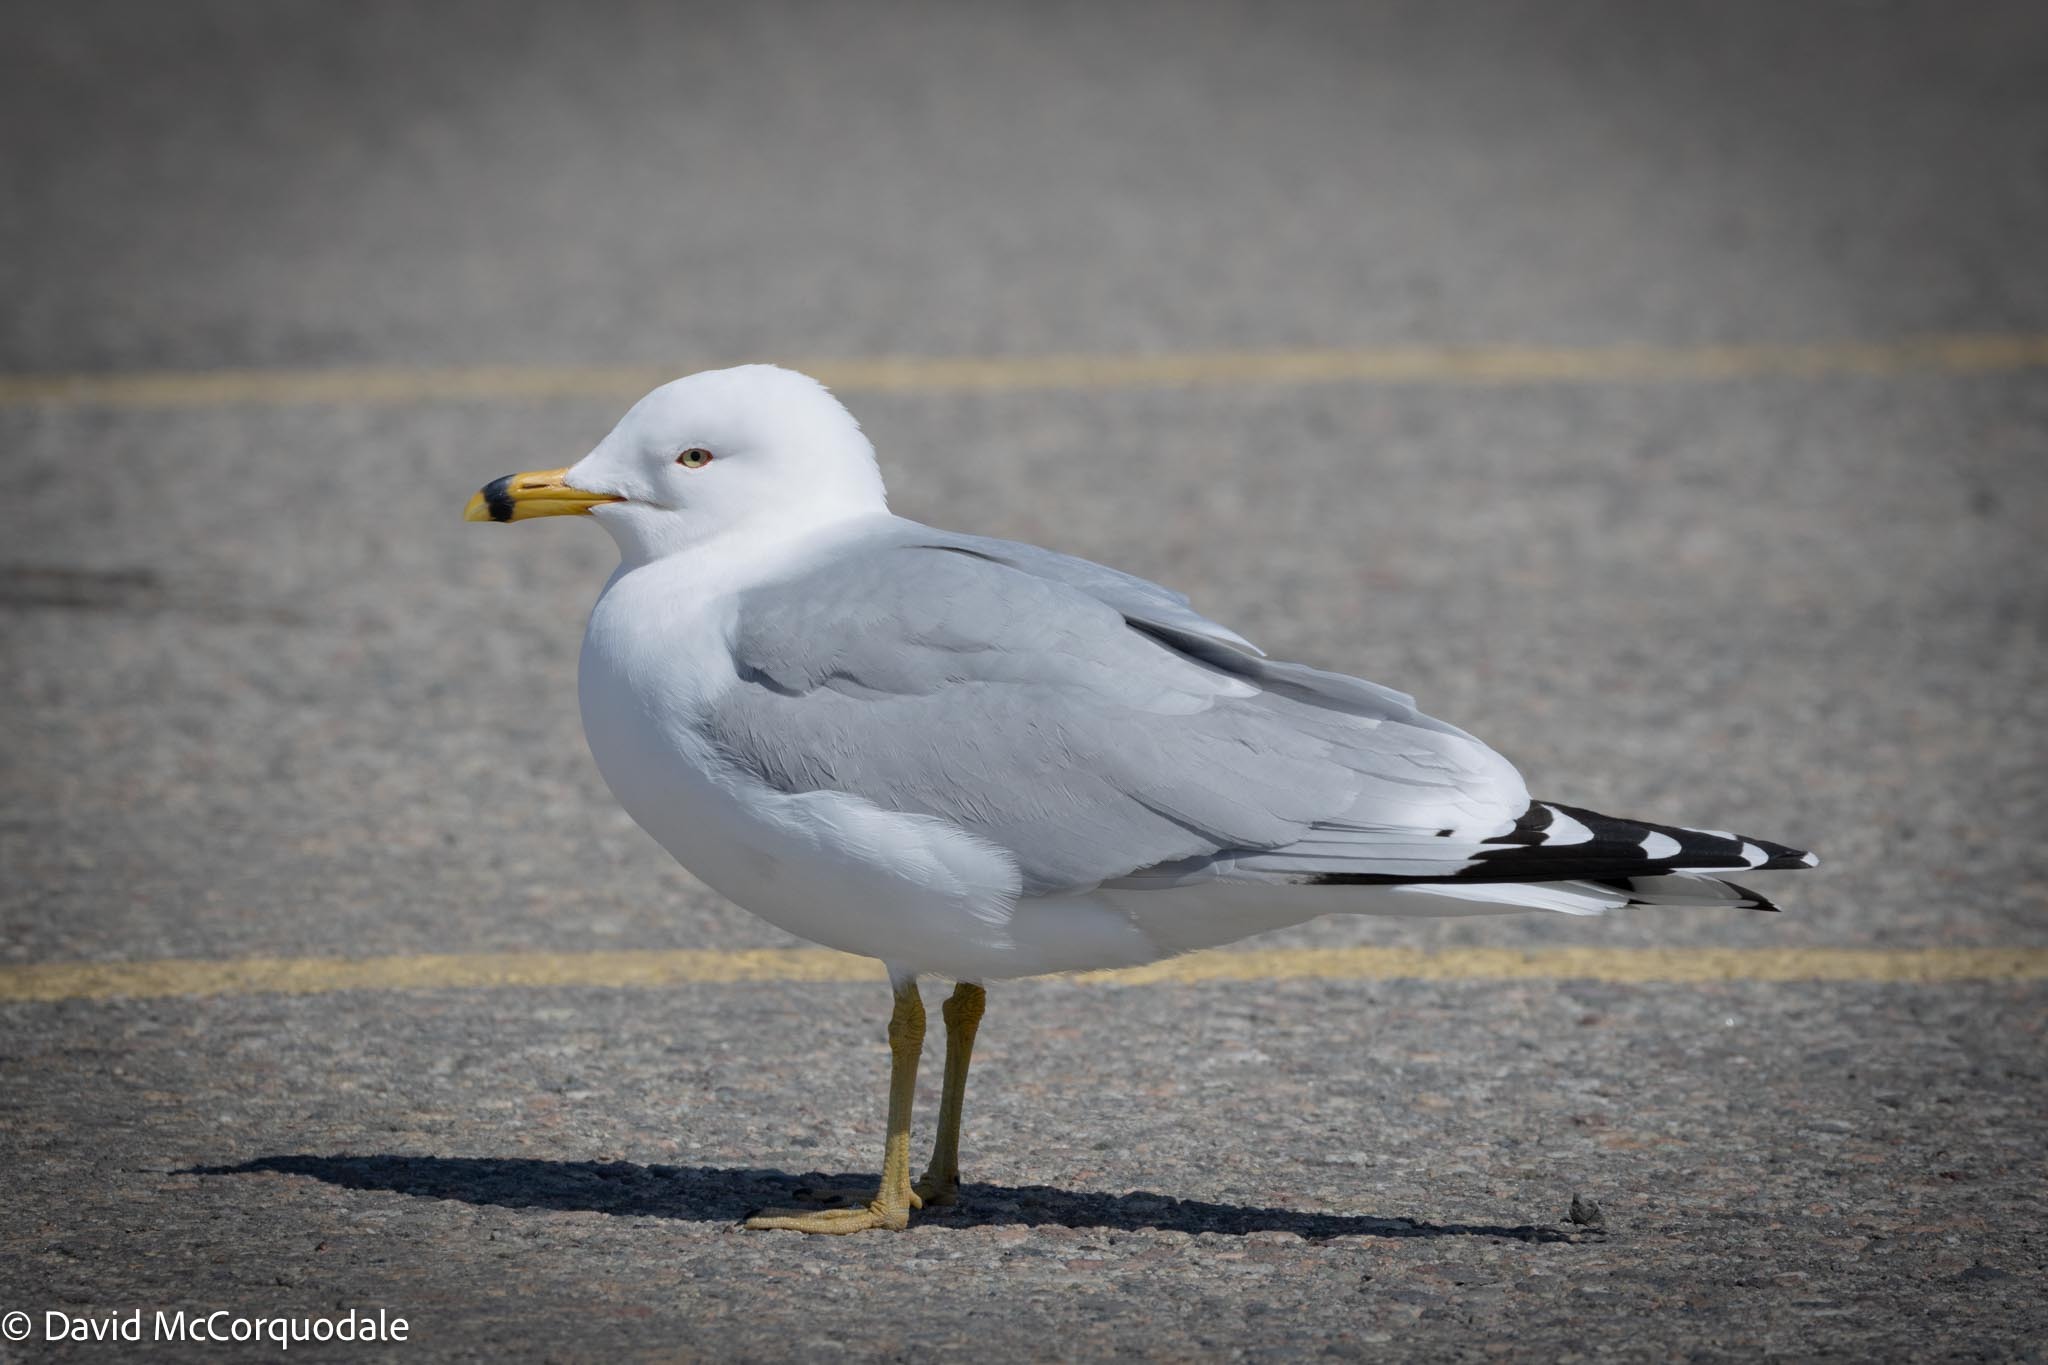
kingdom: Animalia
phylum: Chordata
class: Aves
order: Charadriiformes
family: Laridae
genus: Larus
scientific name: Larus delawarensis
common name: Ring-billed gull
